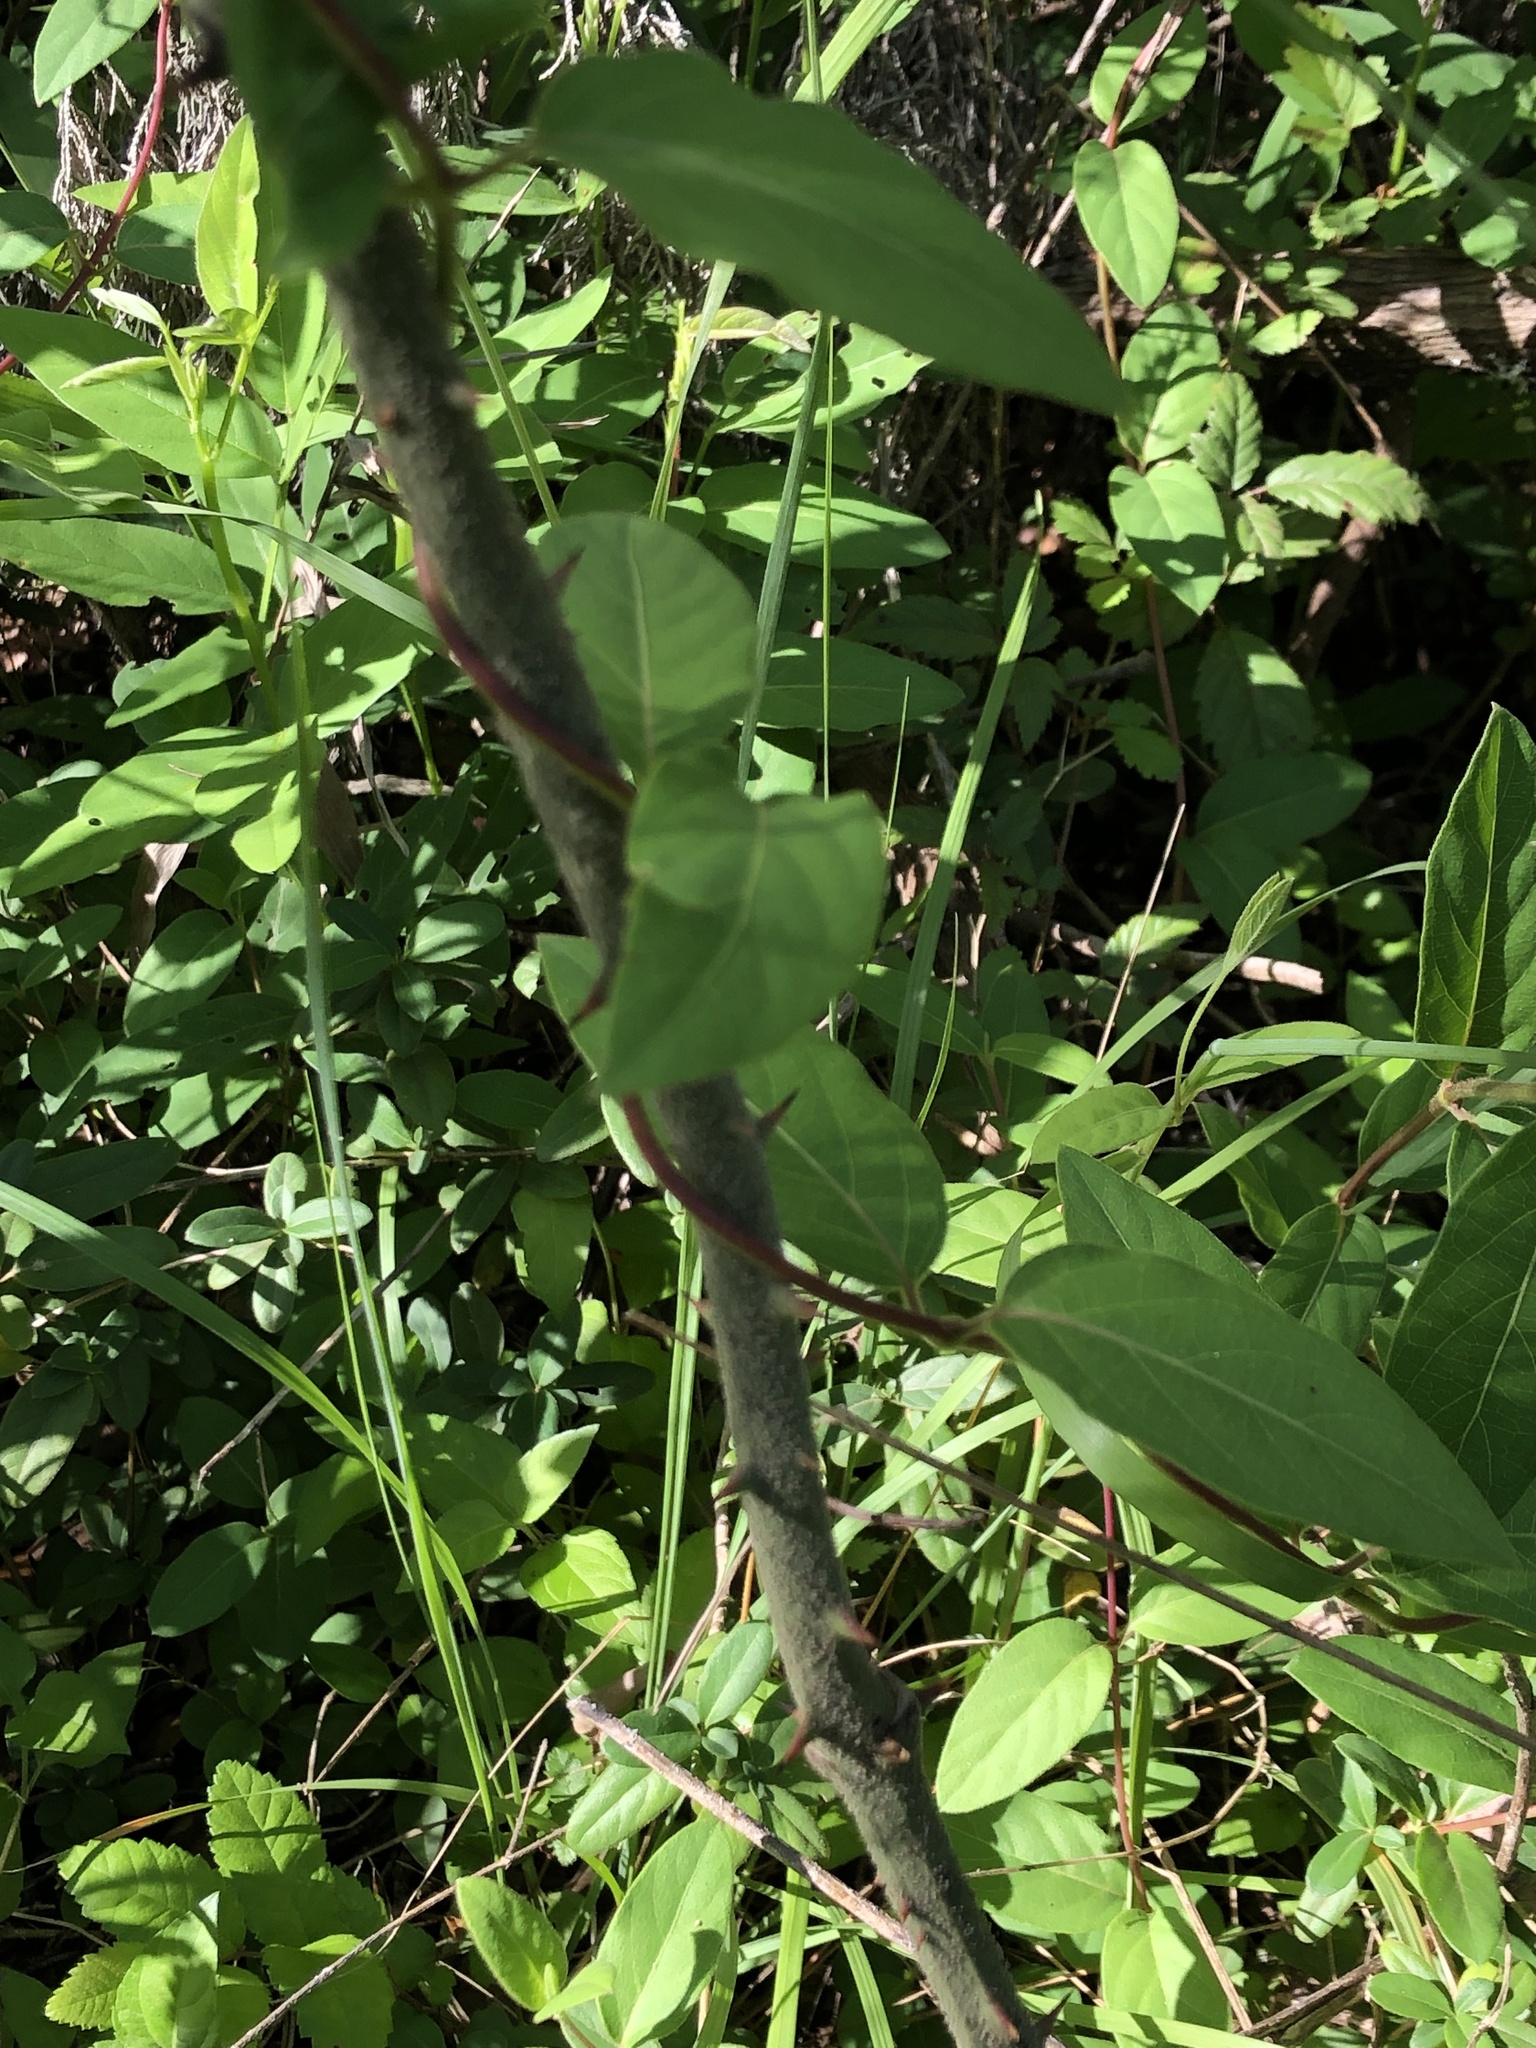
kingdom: Plantae
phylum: Tracheophyta
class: Magnoliopsida
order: Dipsacales
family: Caprifoliaceae
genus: Lonicera
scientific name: Lonicera japonica
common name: Japanese honeysuckle
